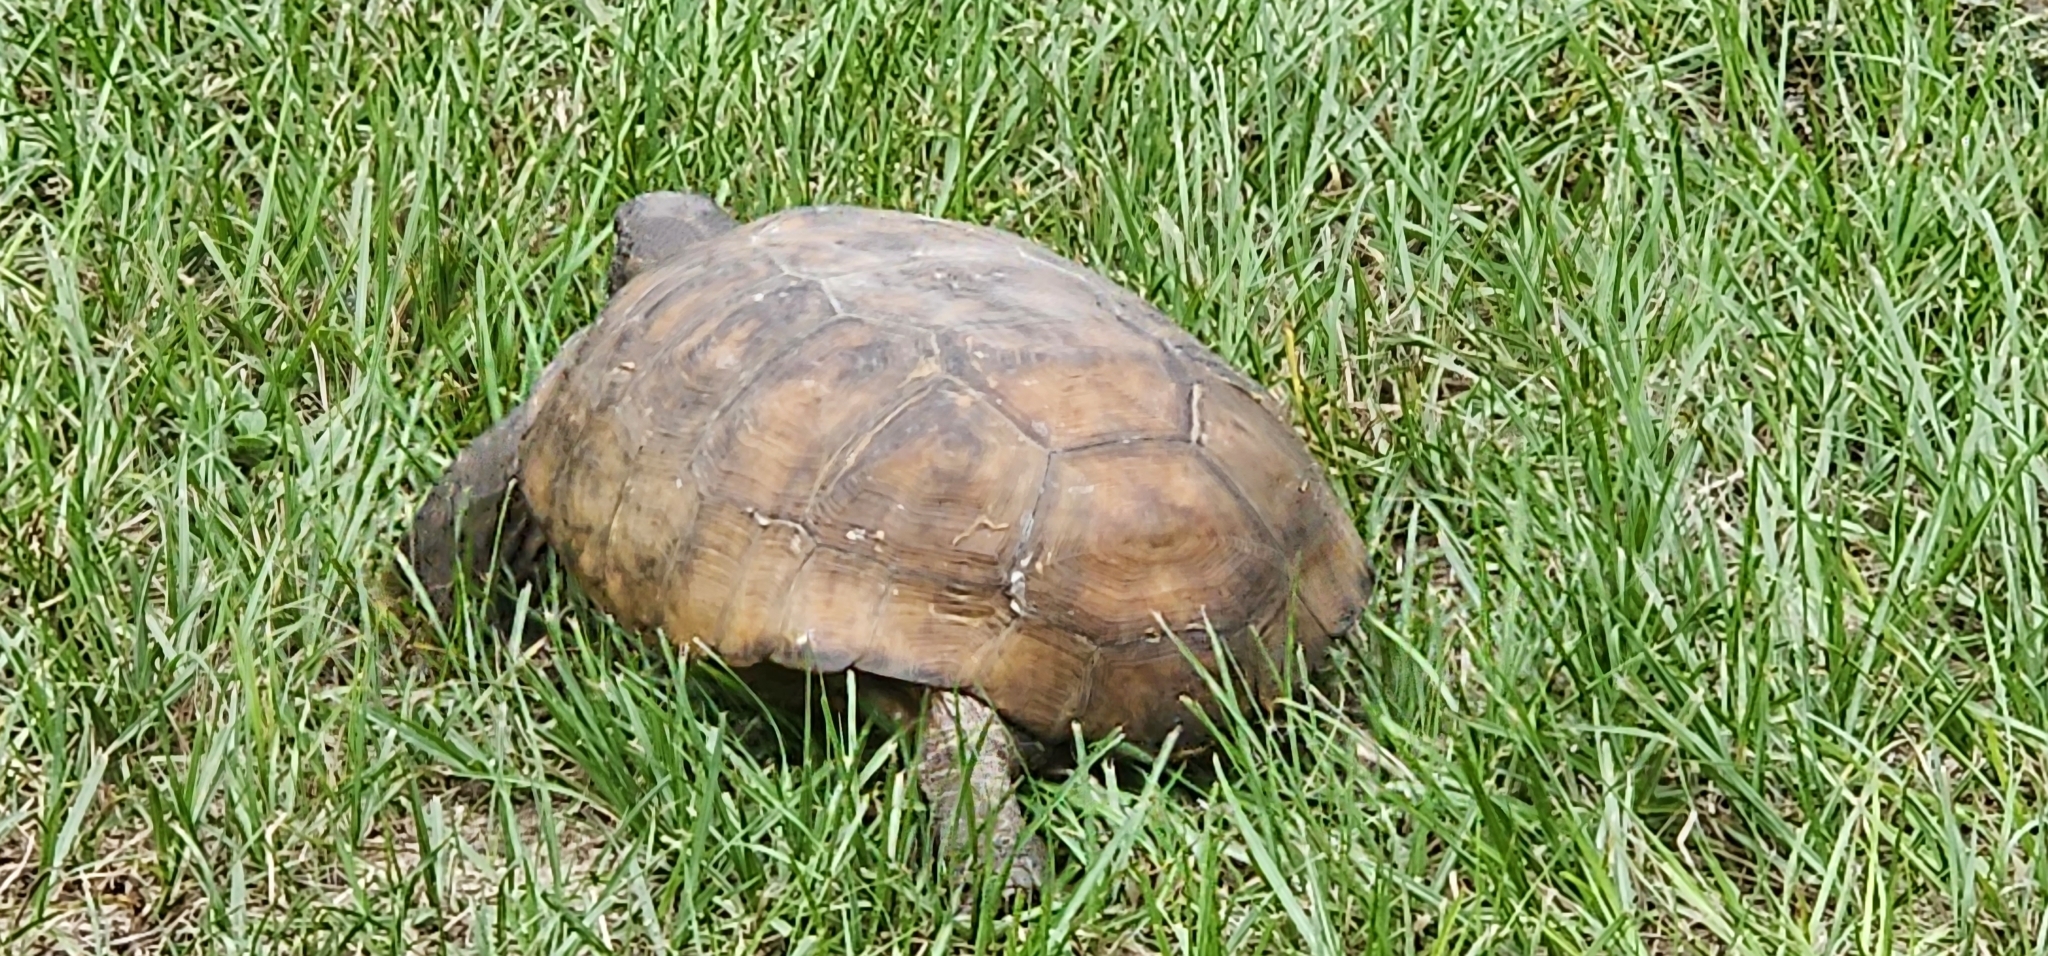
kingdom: Animalia
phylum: Chordata
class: Testudines
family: Testudinidae
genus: Gopherus
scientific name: Gopherus polyphemus
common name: Florida gopher tortoise
